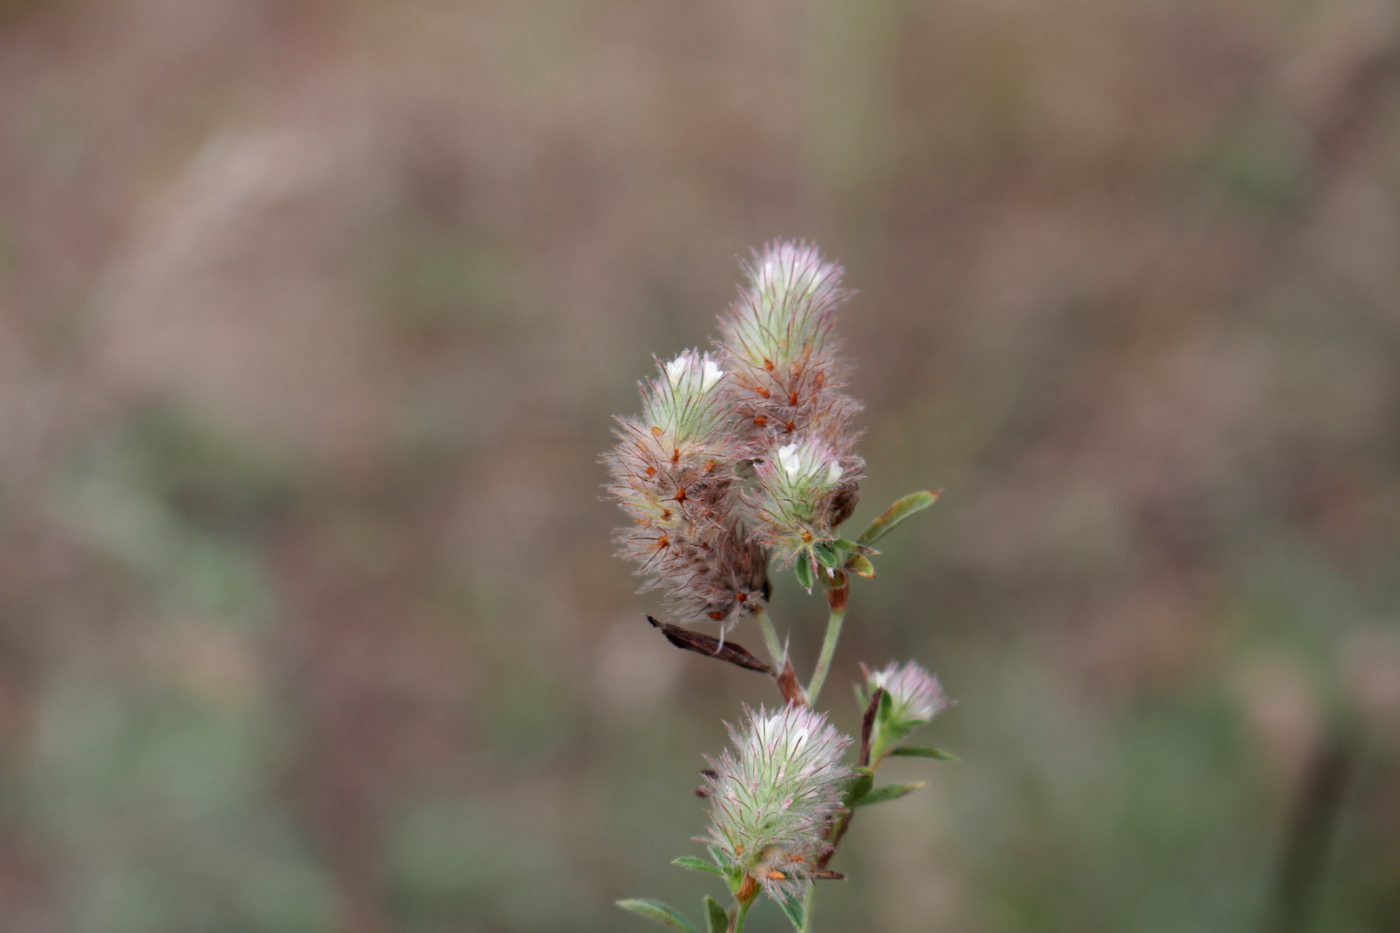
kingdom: Plantae
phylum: Tracheophyta
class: Magnoliopsida
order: Fabales
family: Fabaceae
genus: Trifolium
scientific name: Trifolium arvense
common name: Hare's-foot clover
